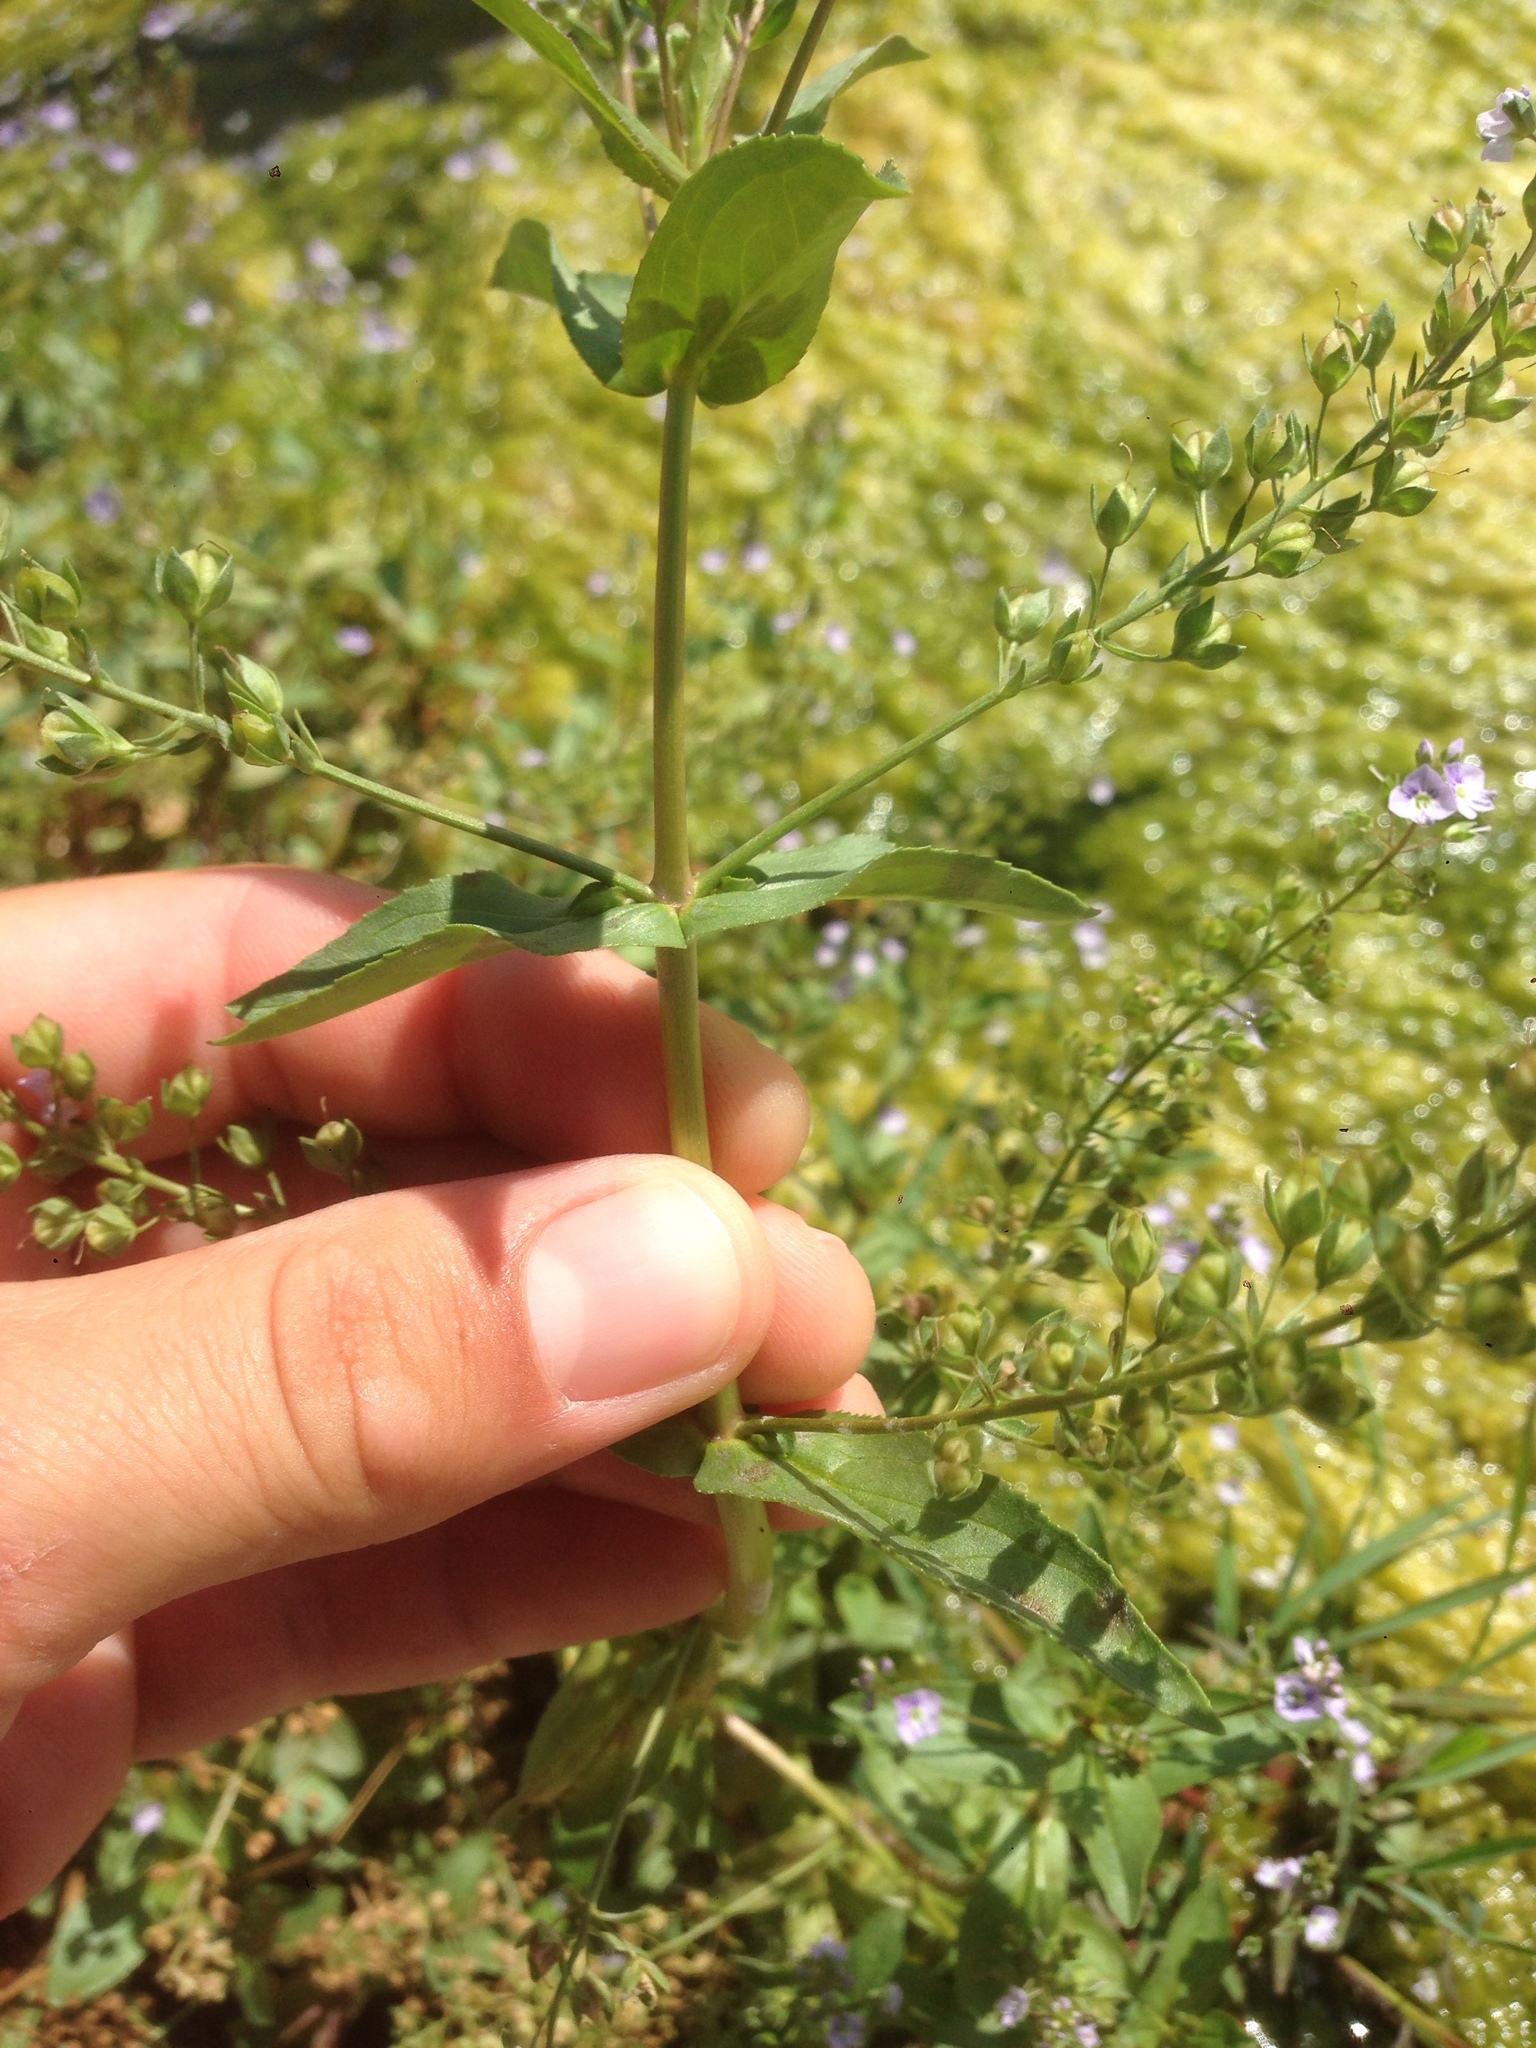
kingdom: Plantae
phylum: Tracheophyta
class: Magnoliopsida
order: Lamiales
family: Plantaginaceae
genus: Veronica
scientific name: Veronica anagallis-aquatica
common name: Water speedwell
